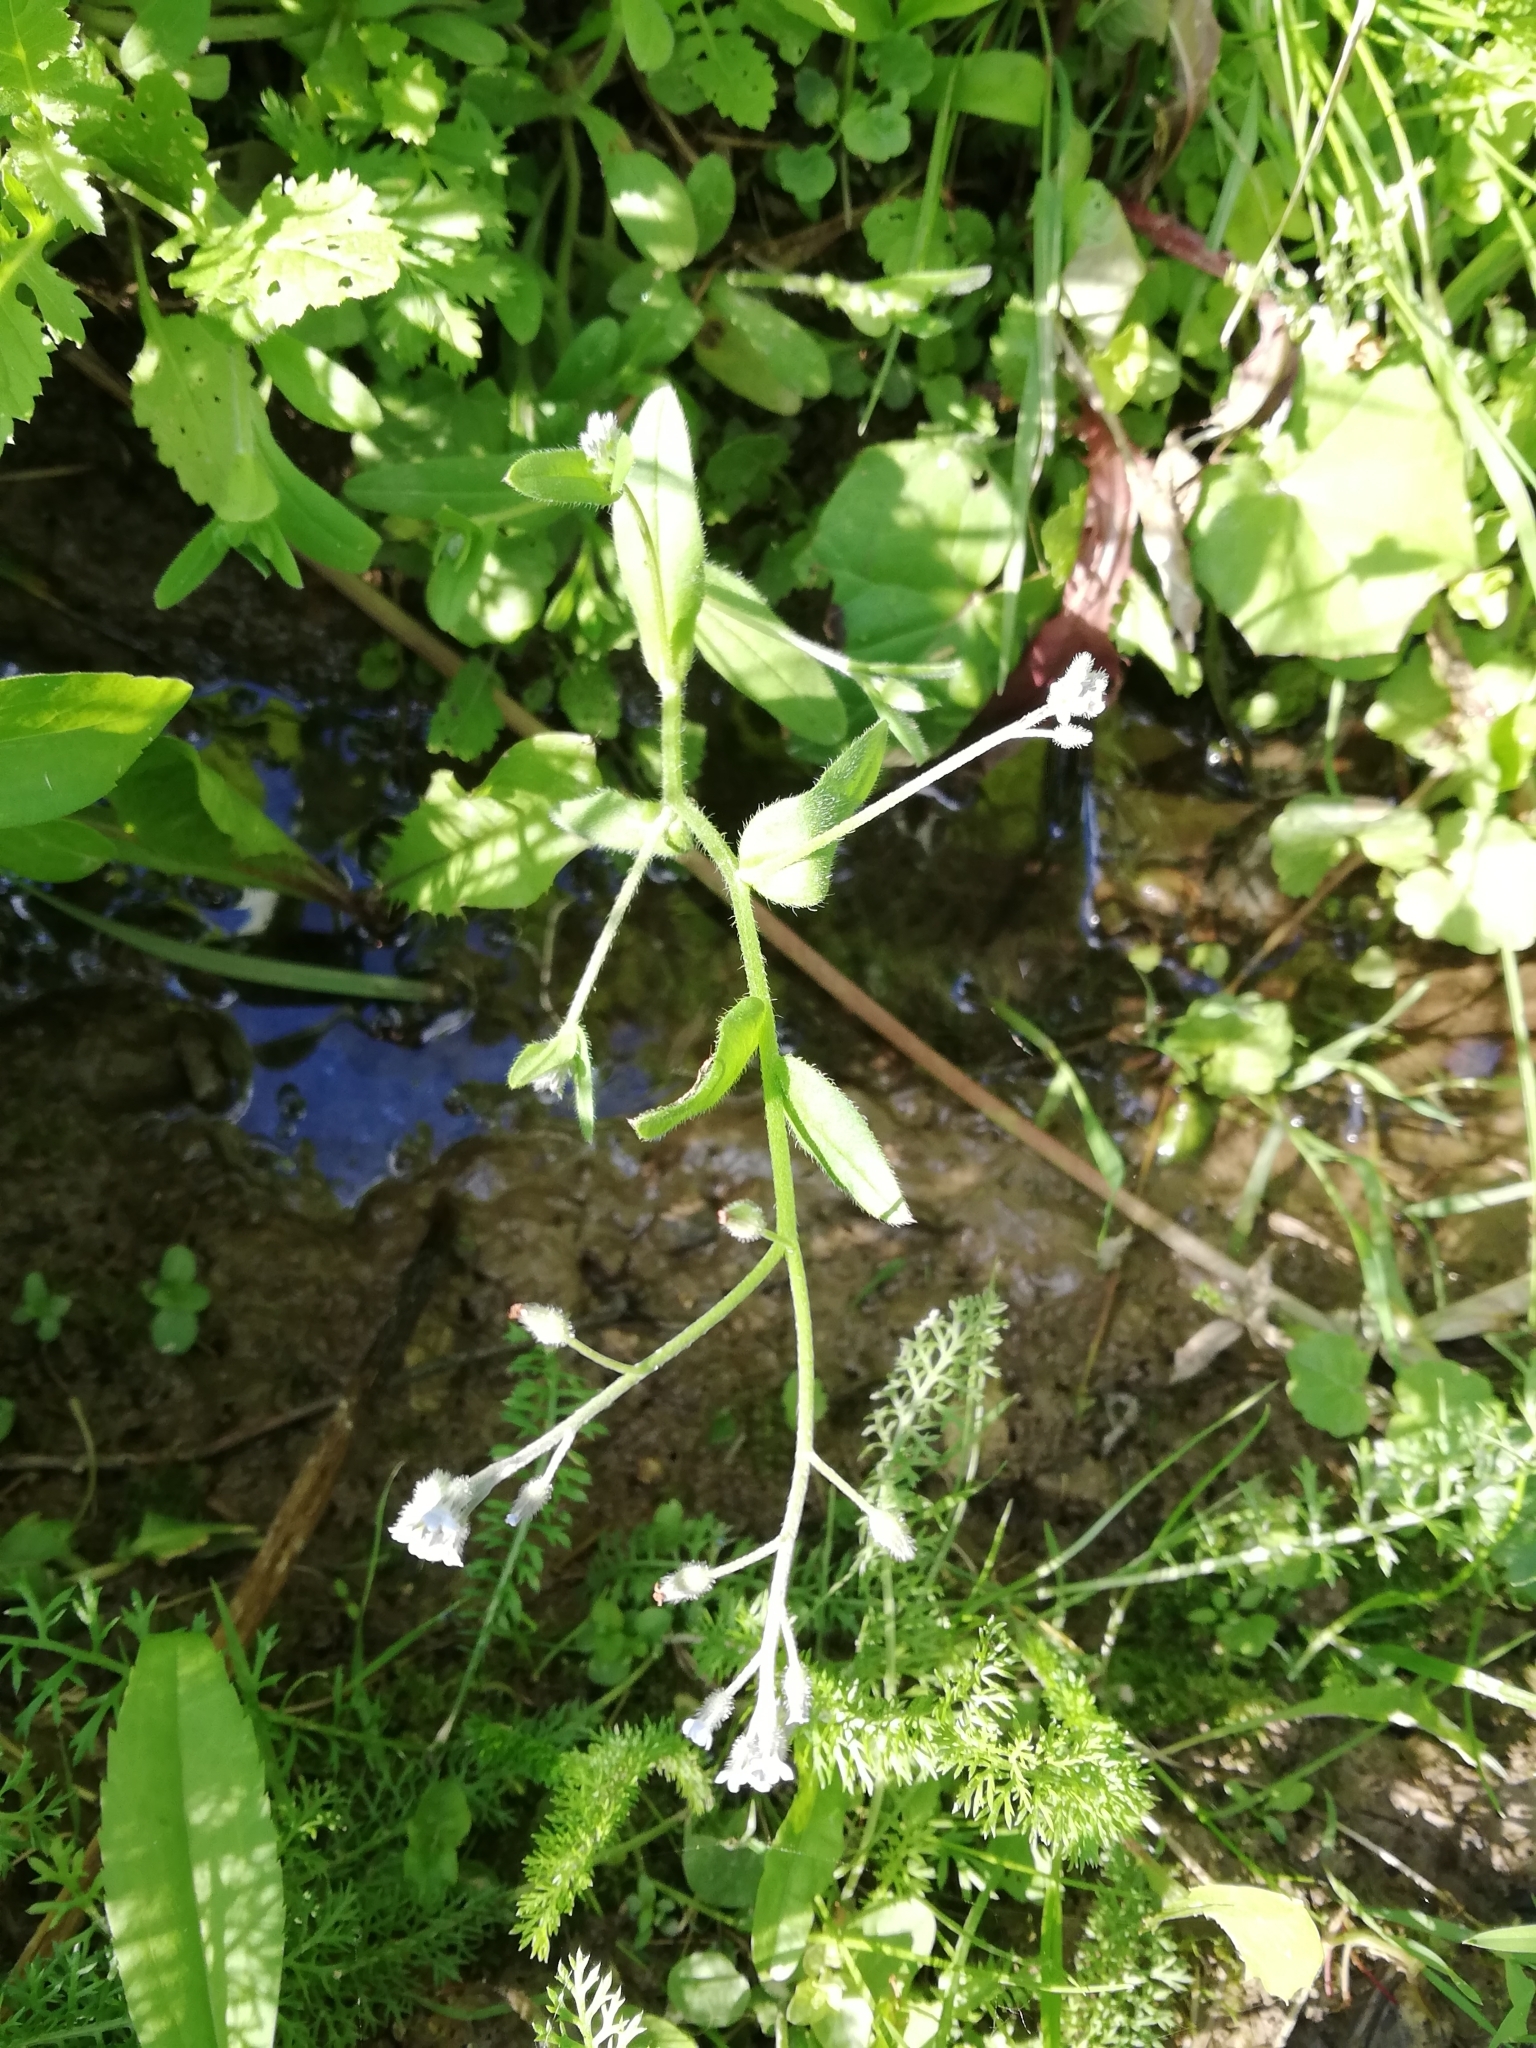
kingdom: Plantae
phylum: Tracheophyta
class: Magnoliopsida
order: Boraginales
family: Boraginaceae
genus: Myosotis
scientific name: Myosotis arvensis
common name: Field forget-me-not
